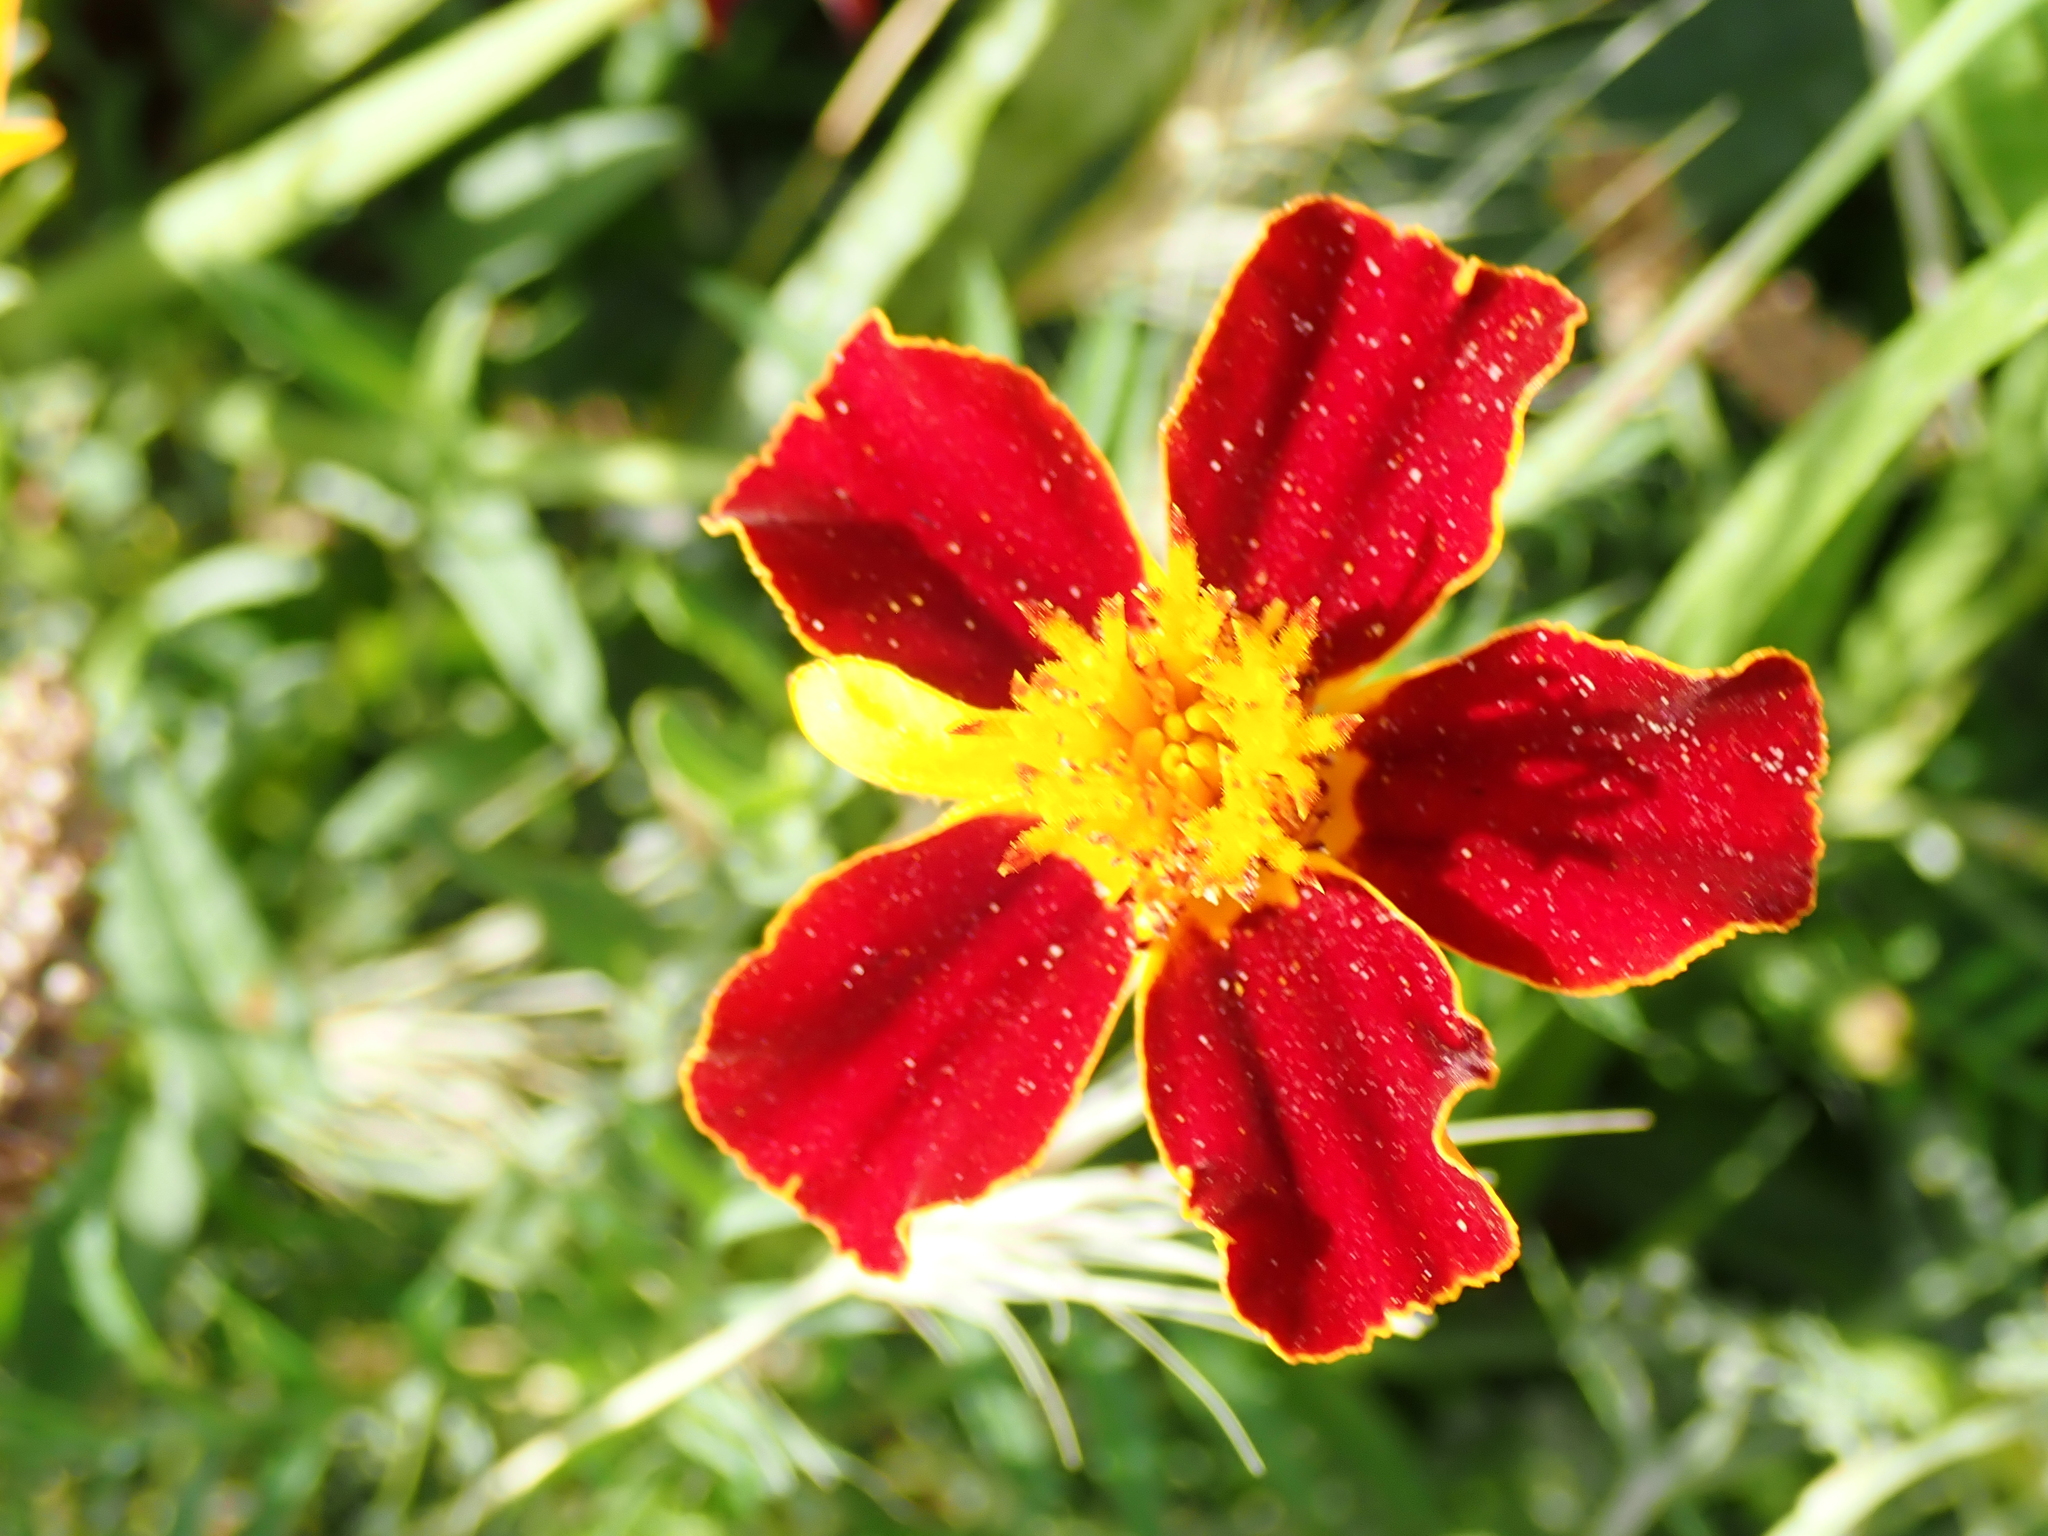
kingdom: Plantae
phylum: Tracheophyta
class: Magnoliopsida
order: Asterales
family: Asteraceae
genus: Tagetes
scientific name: Tagetes erecta
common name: African marigold
